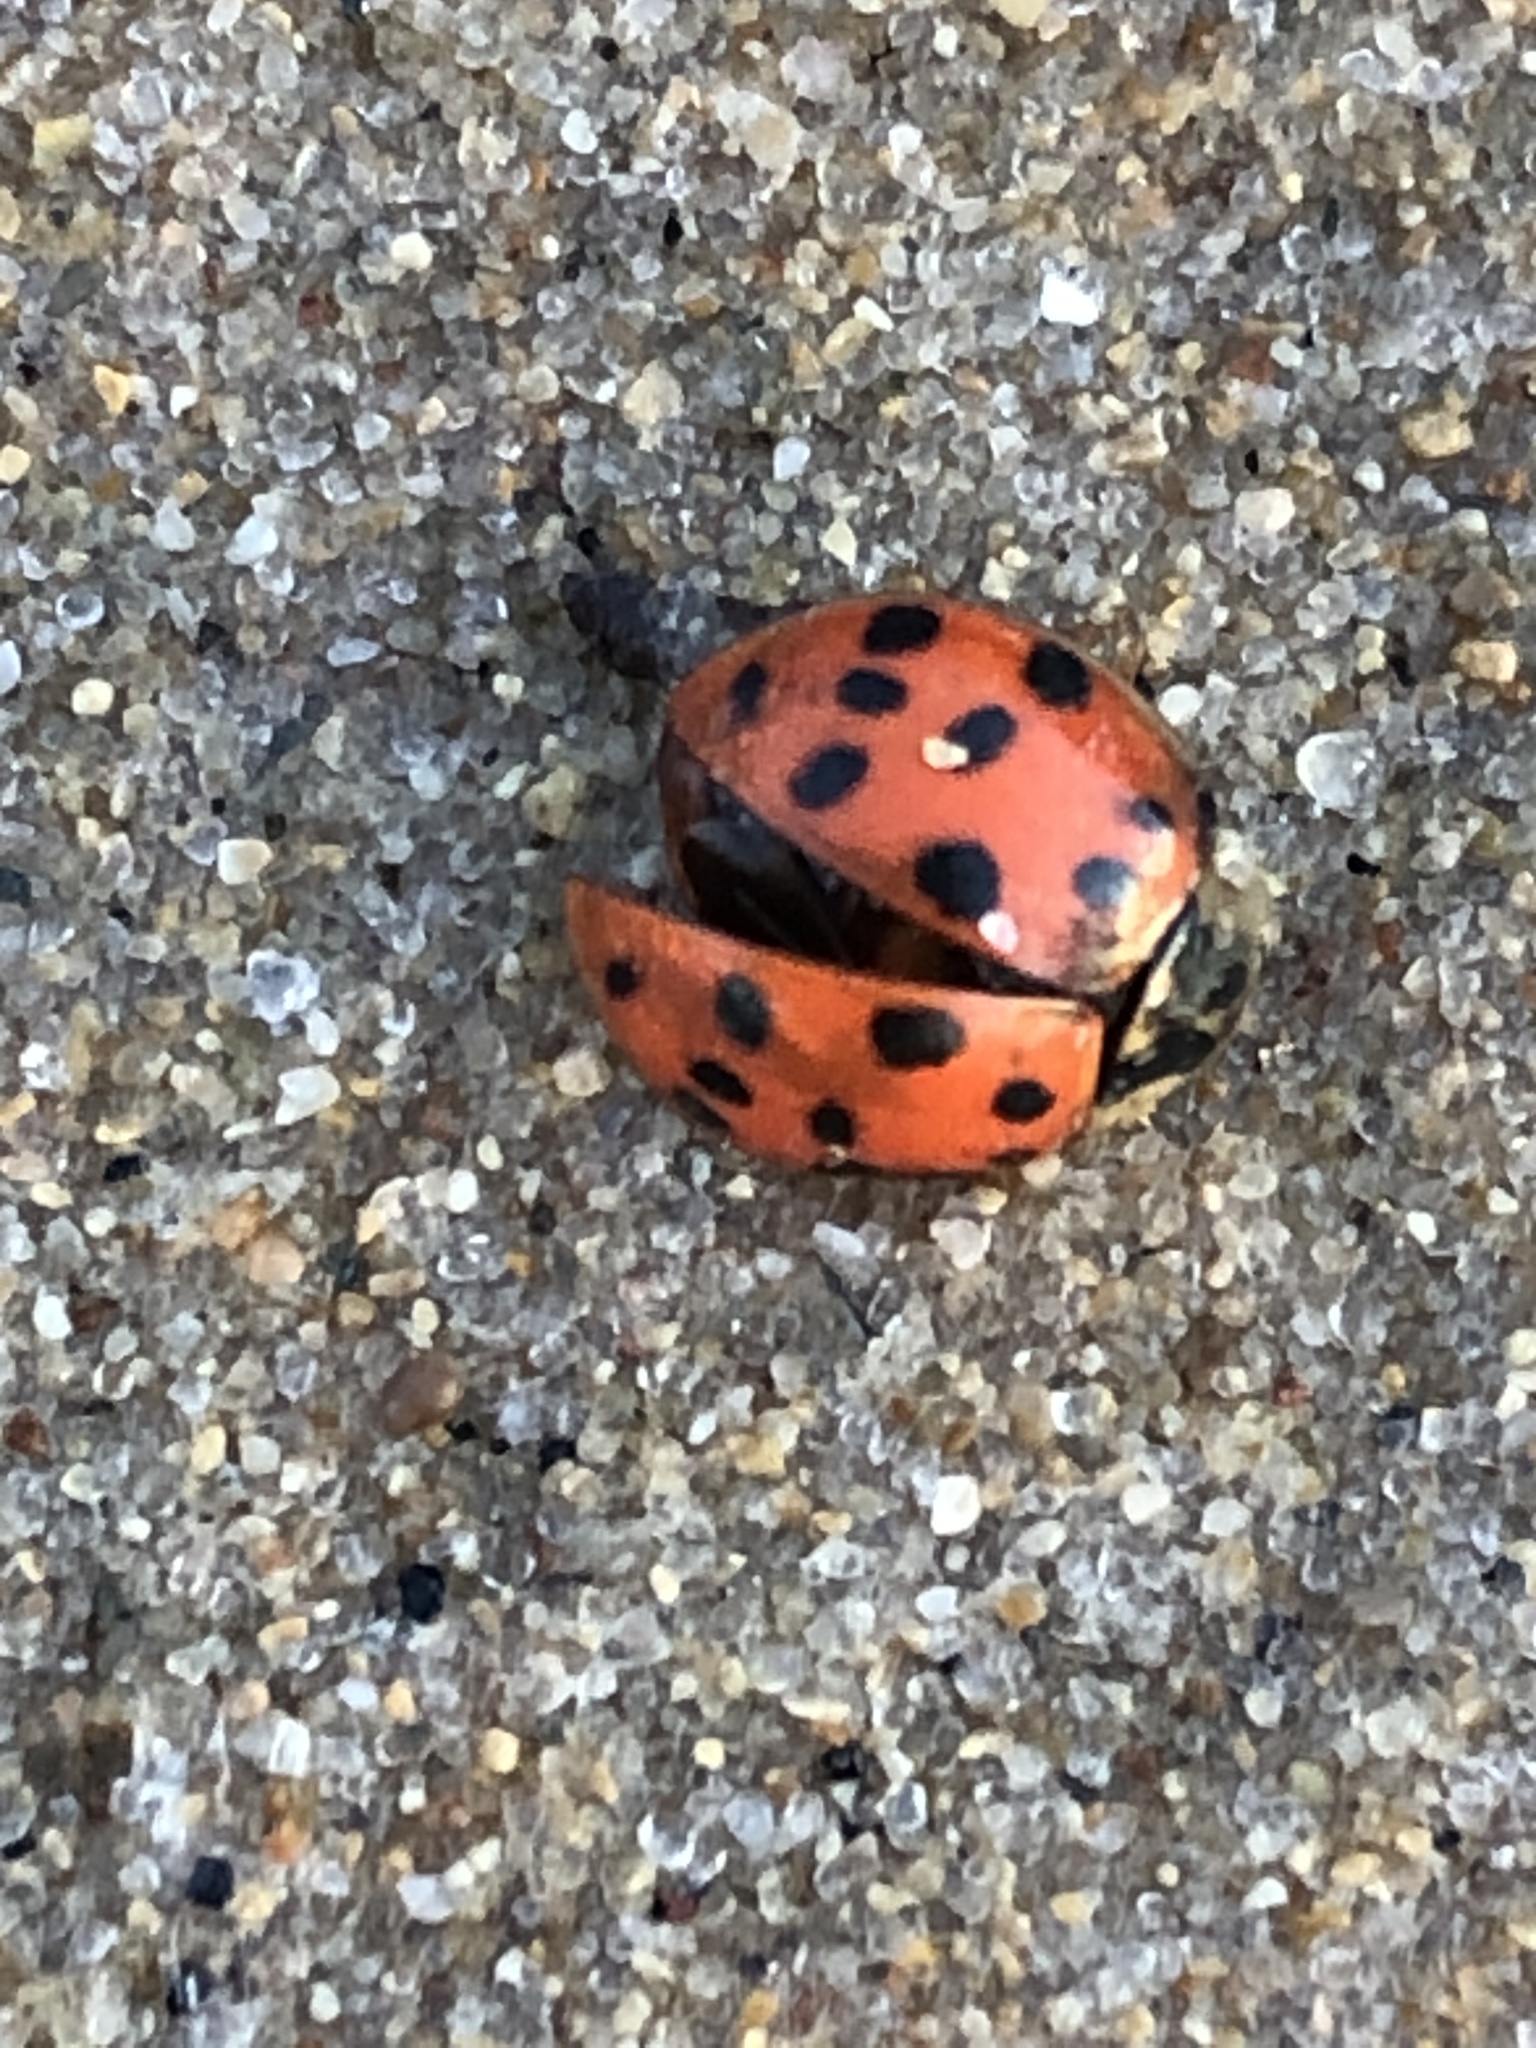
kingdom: Animalia
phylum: Arthropoda
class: Insecta
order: Coleoptera
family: Coccinellidae
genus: Harmonia
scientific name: Harmonia axyridis
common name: Harlequin ladybird
